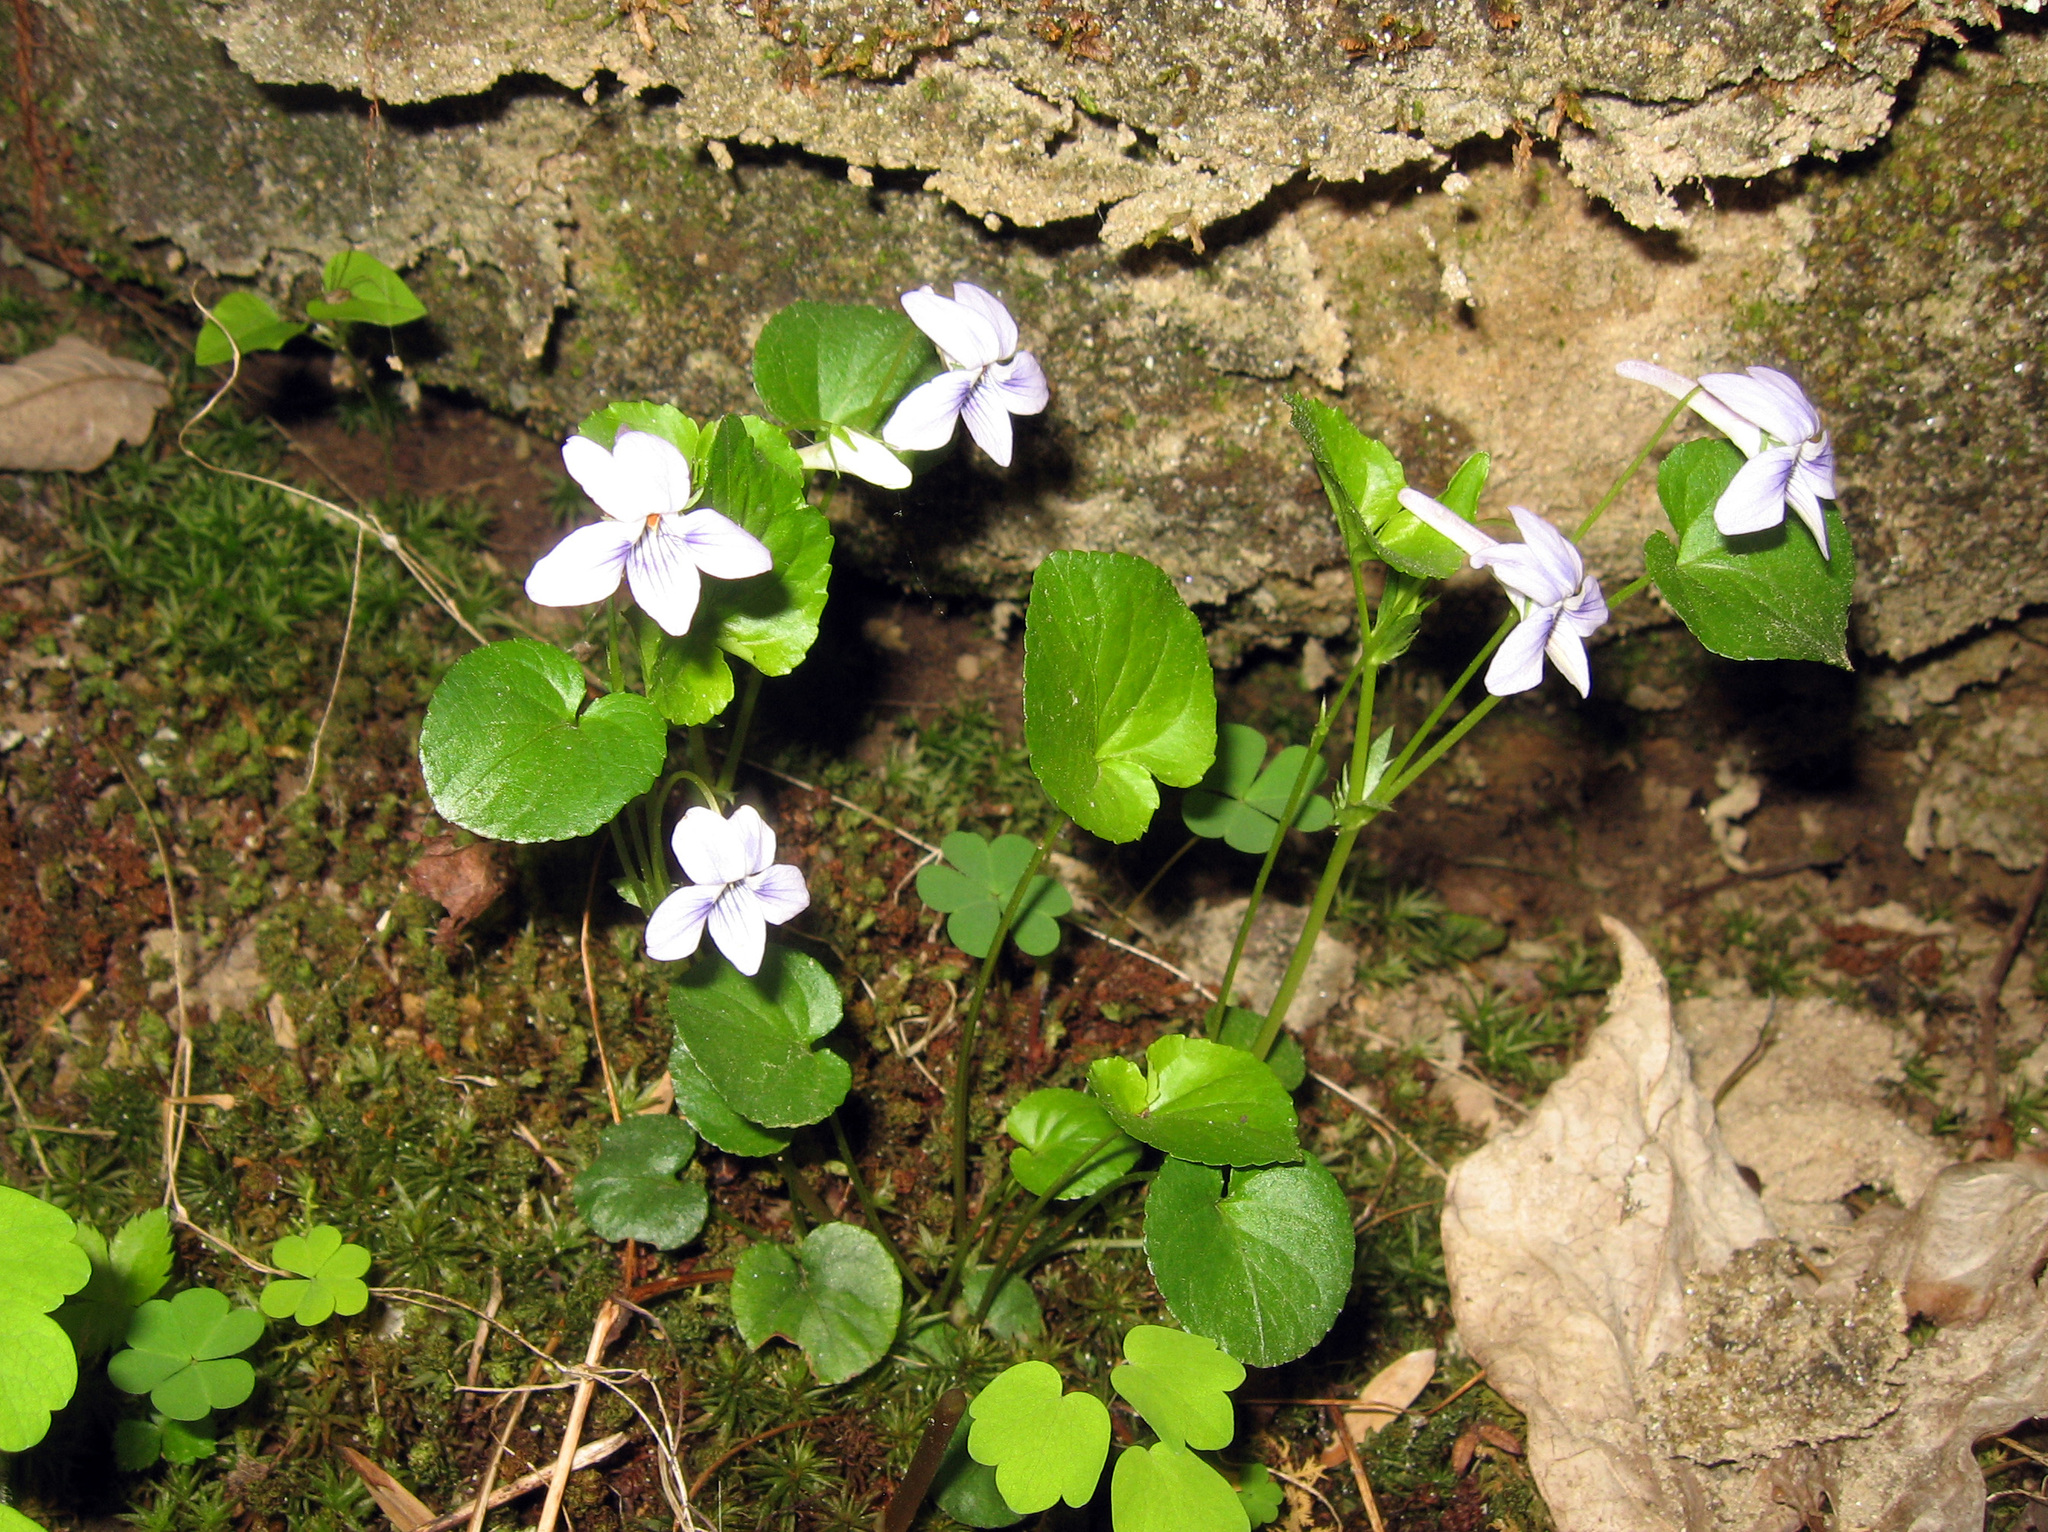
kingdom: Plantae
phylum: Tracheophyta
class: Magnoliopsida
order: Malpighiales
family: Violaceae
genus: Viola
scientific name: Viola rostrata
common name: Long-spur violet
